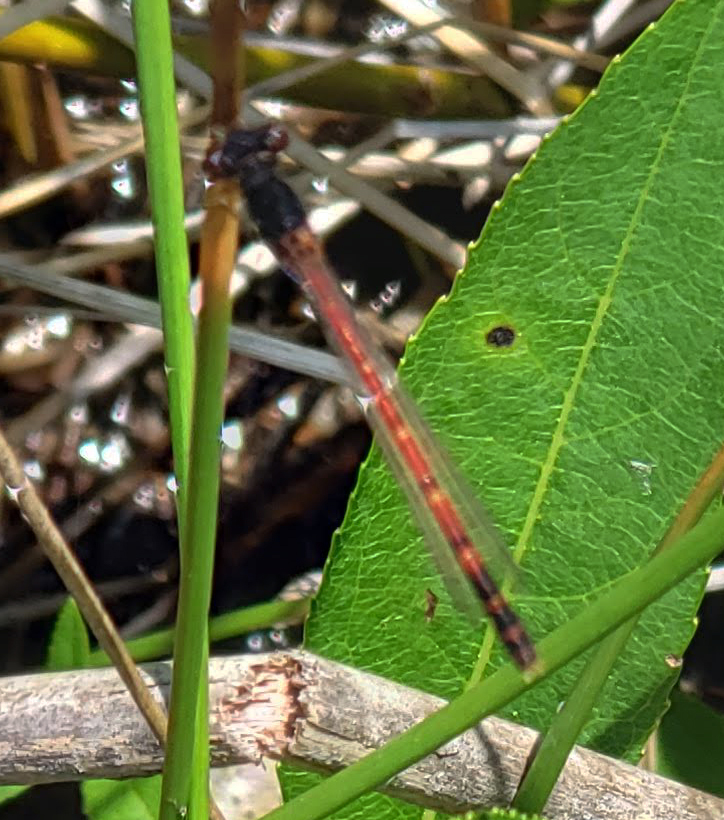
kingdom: Animalia
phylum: Arthropoda
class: Insecta
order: Odonata
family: Coenagrionidae
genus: Amphiagrion
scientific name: Amphiagrion saucium
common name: Eastern red damsel
